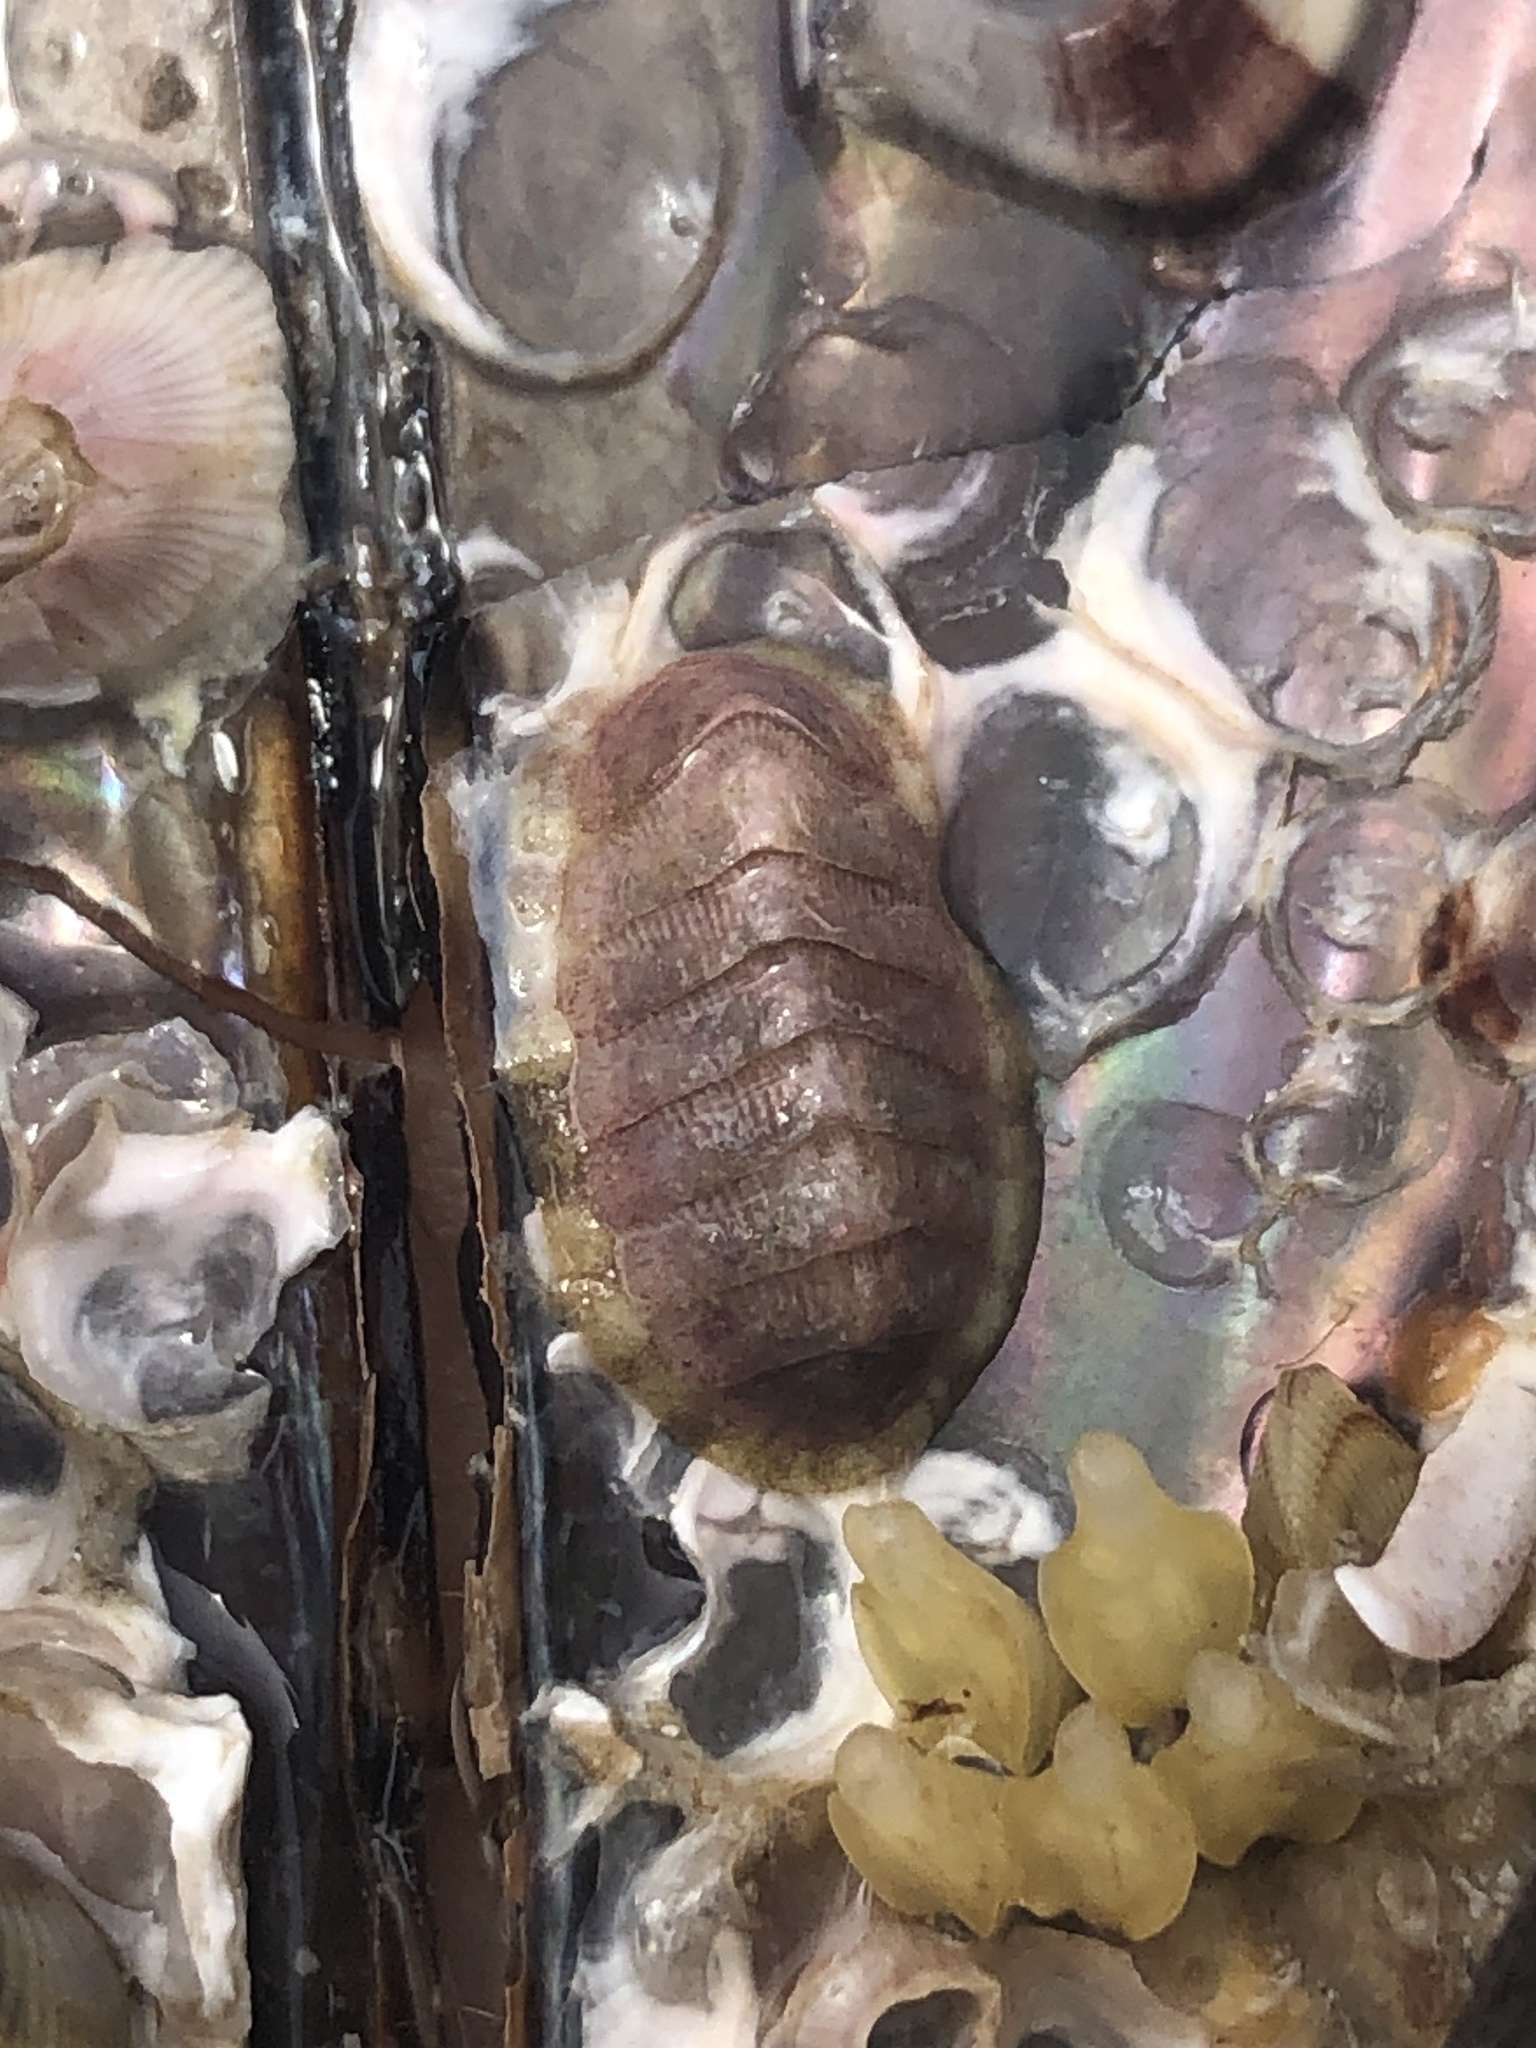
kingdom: Animalia
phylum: Mollusca
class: Polyplacophora
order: Chitonida
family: Chaetopleuridae
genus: Chaetopleura
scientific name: Chaetopleura apiculata
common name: Bee chiton
